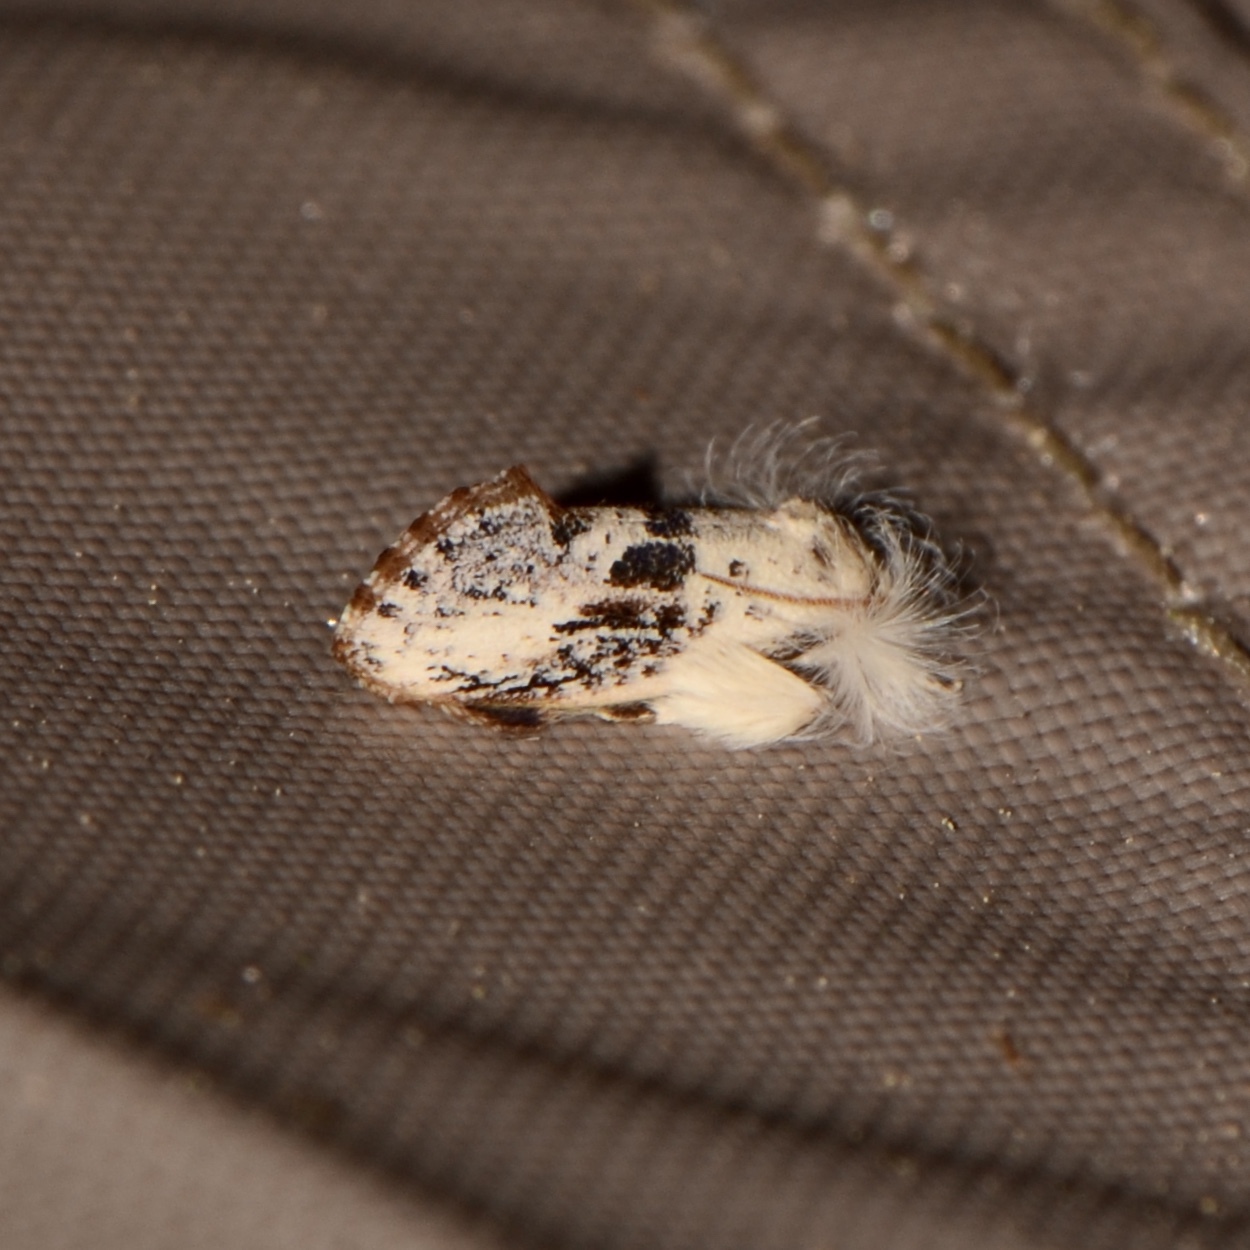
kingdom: Animalia
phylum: Arthropoda
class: Insecta
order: Lepidoptera
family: Tineidae
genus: Acrolophus
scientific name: Acrolophus mycetophagus
